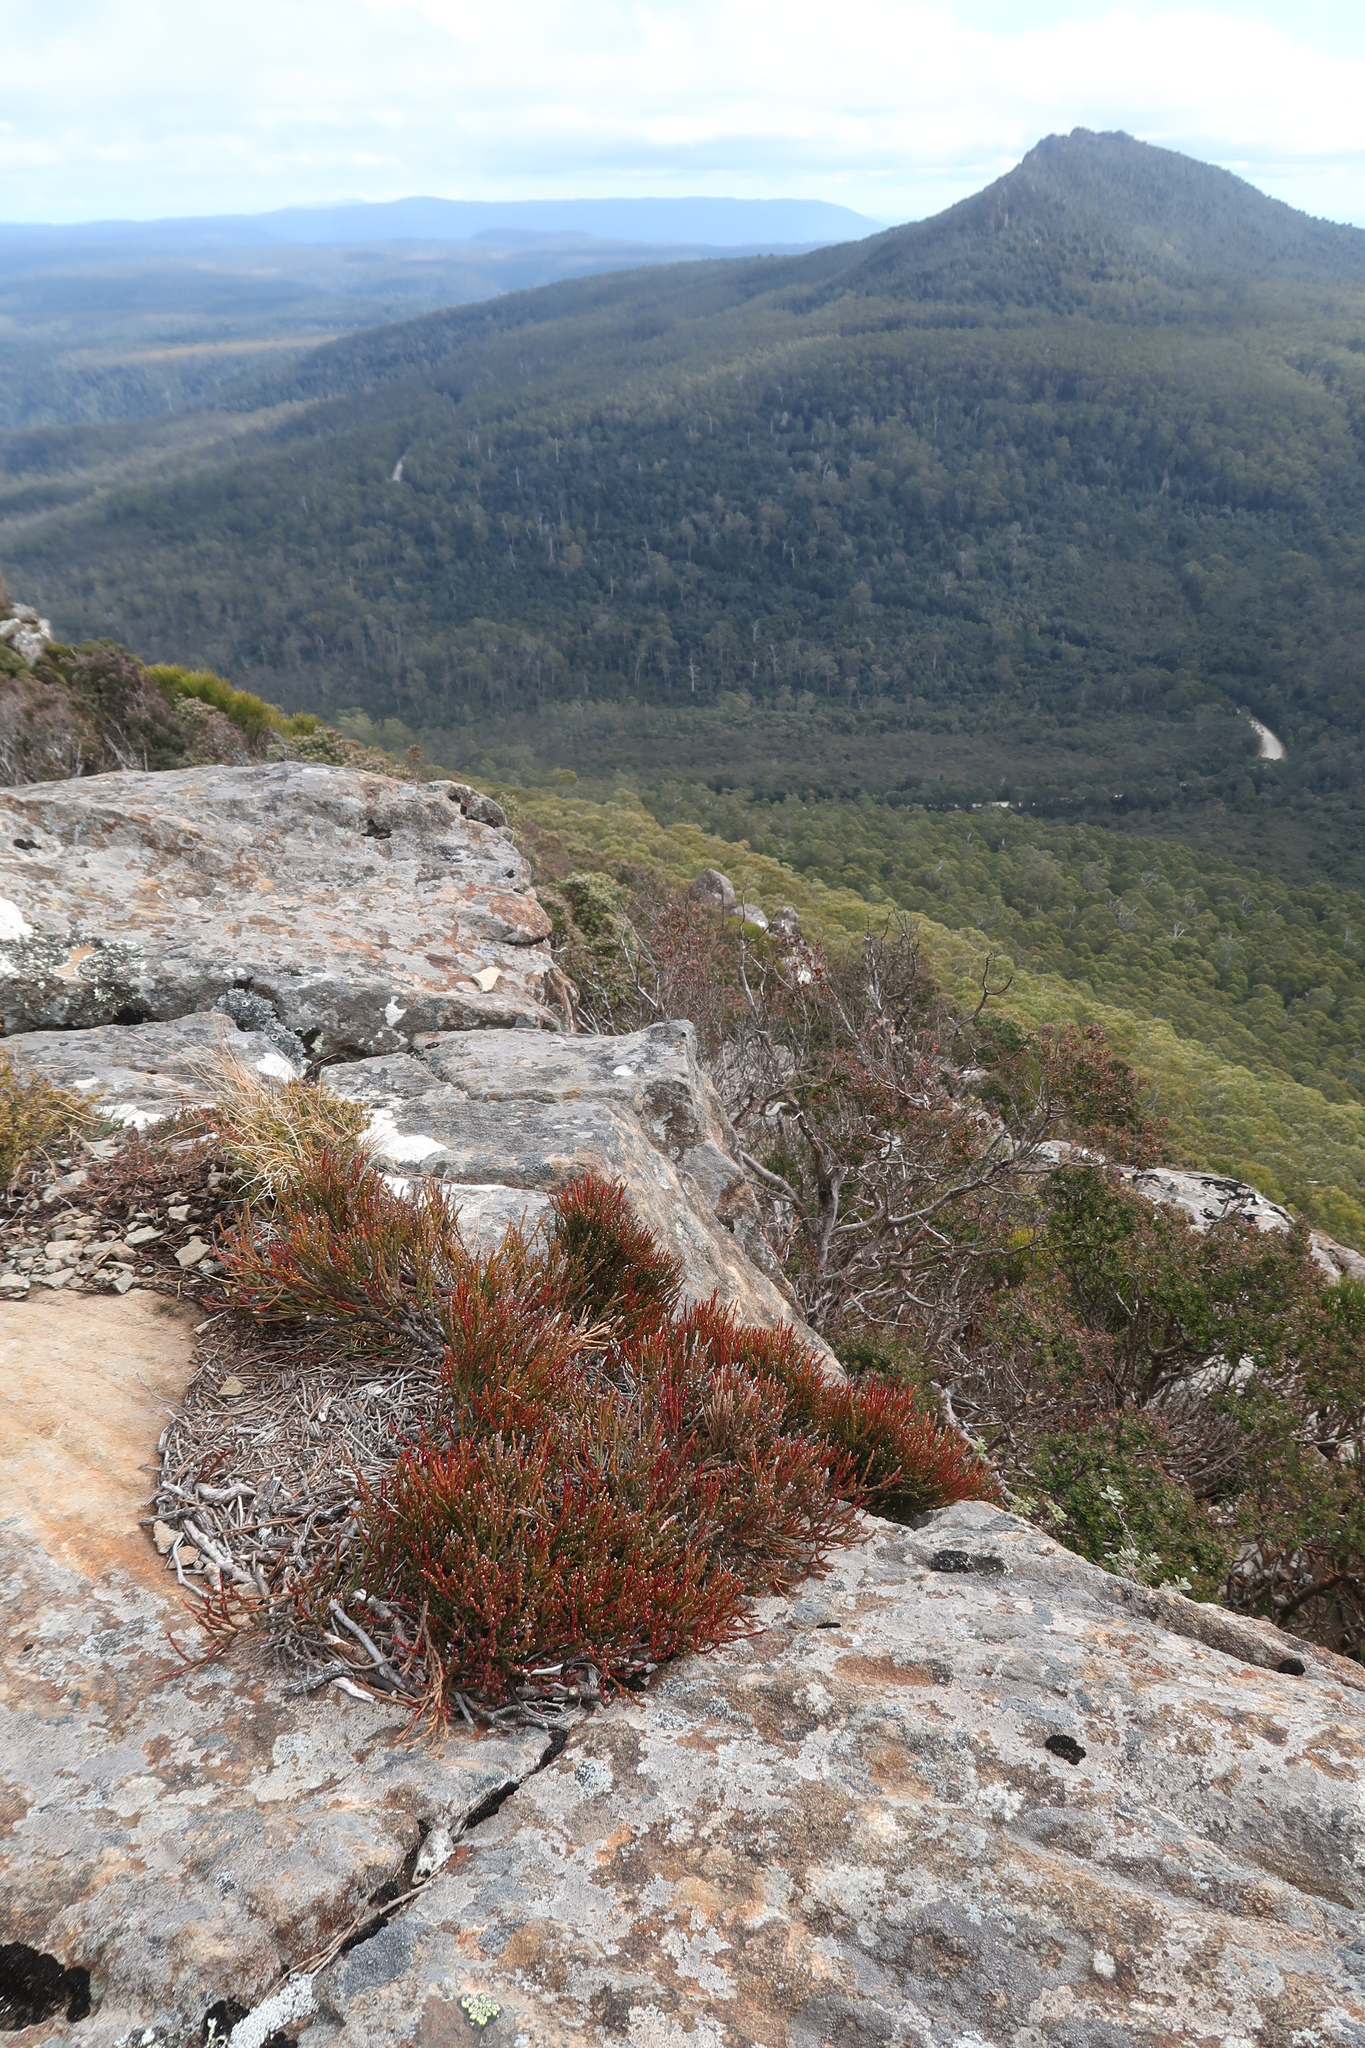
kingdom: Plantae
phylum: Tracheophyta
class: Magnoliopsida
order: Santalales
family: Santalaceae
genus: Exocarpos
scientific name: Exocarpos humifusus
